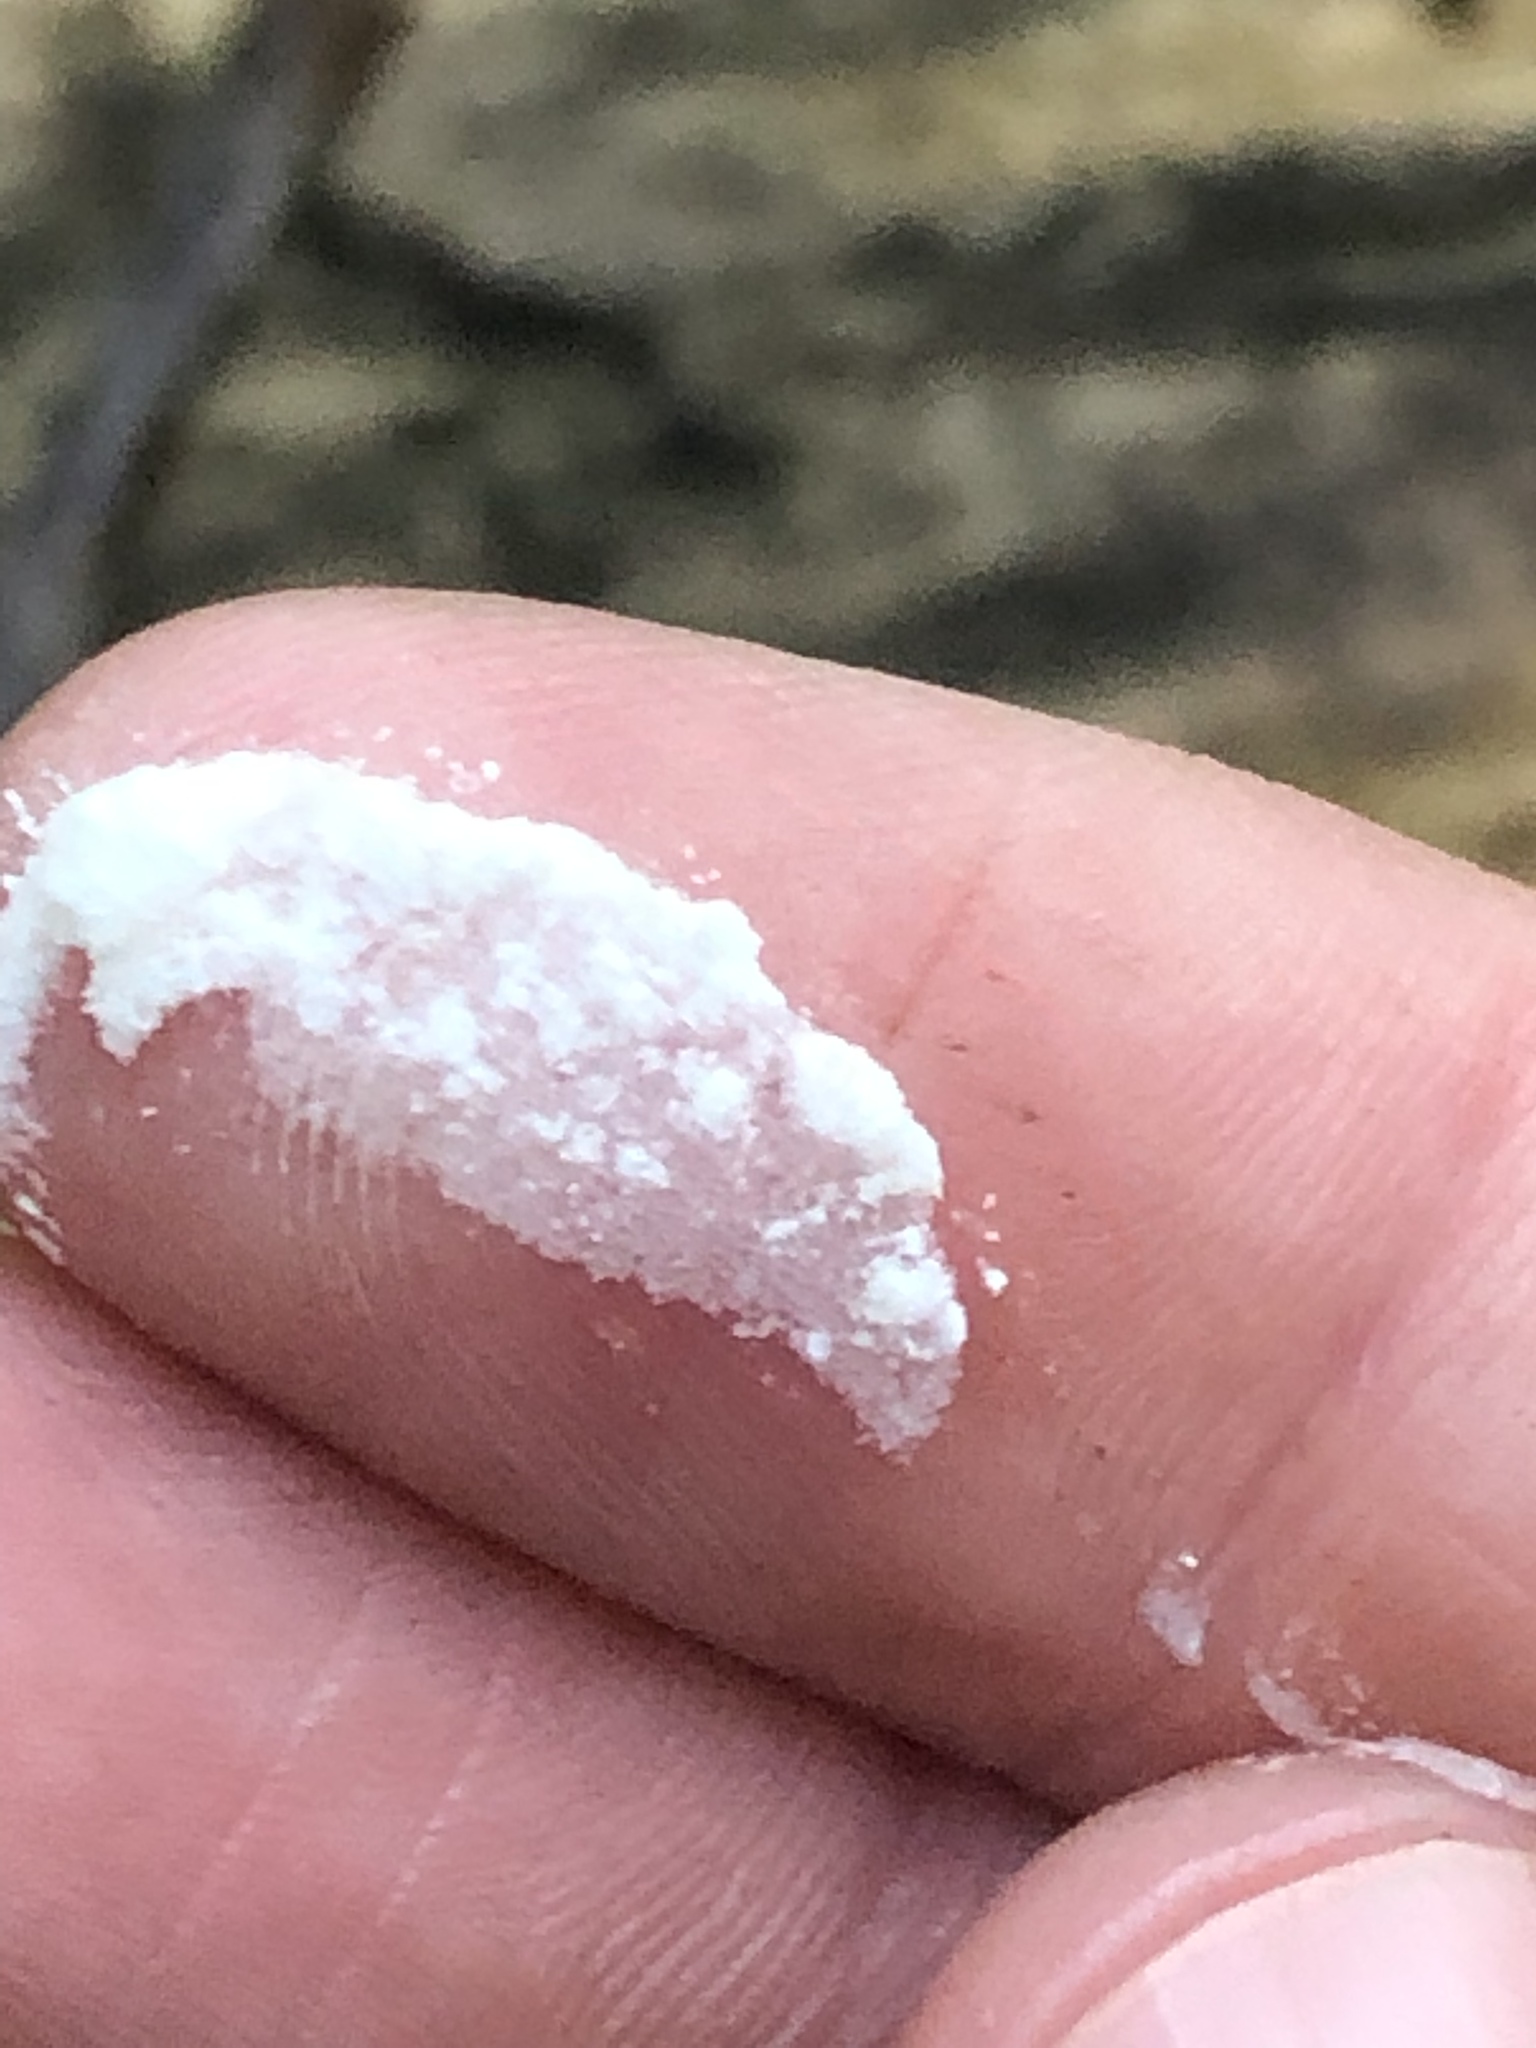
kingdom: Protozoa
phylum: Mycetozoa
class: Protosteliomycetes
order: Ceratiomyxales
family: Ceratiomyxaceae
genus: Ceratiomyxa
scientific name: Ceratiomyxa fruticulosa
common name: Honeycomb coral slime mold
